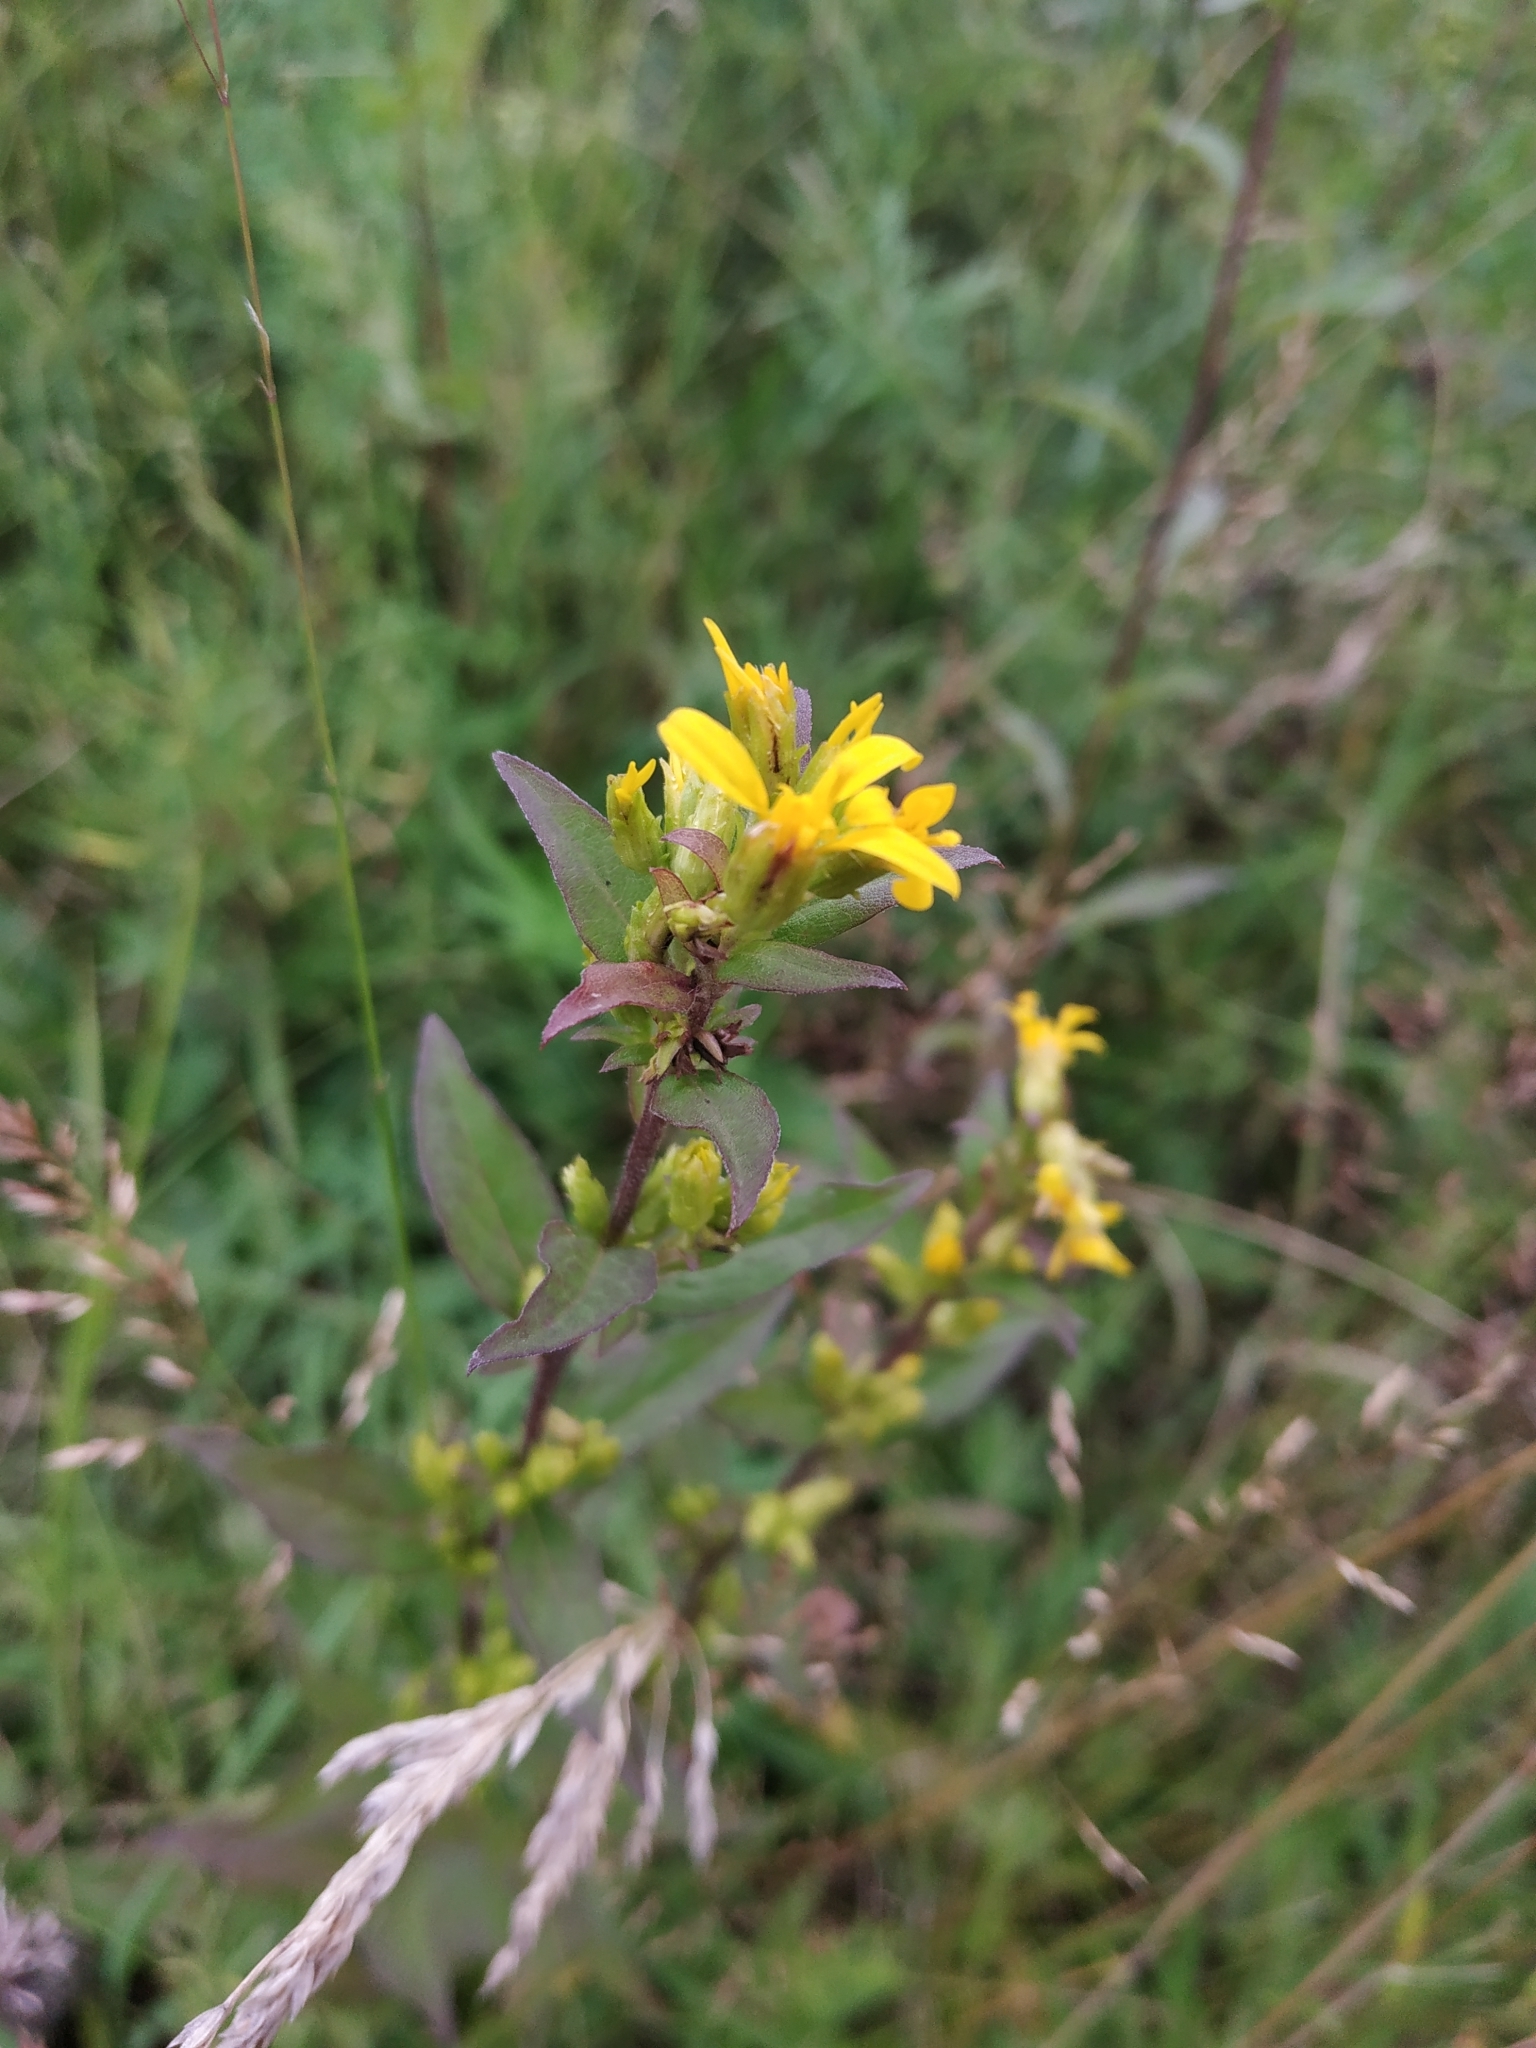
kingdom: Plantae
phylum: Tracheophyta
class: Magnoliopsida
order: Asterales
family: Asteraceae
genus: Solidago
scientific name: Solidago virgaurea
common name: Goldenrod
